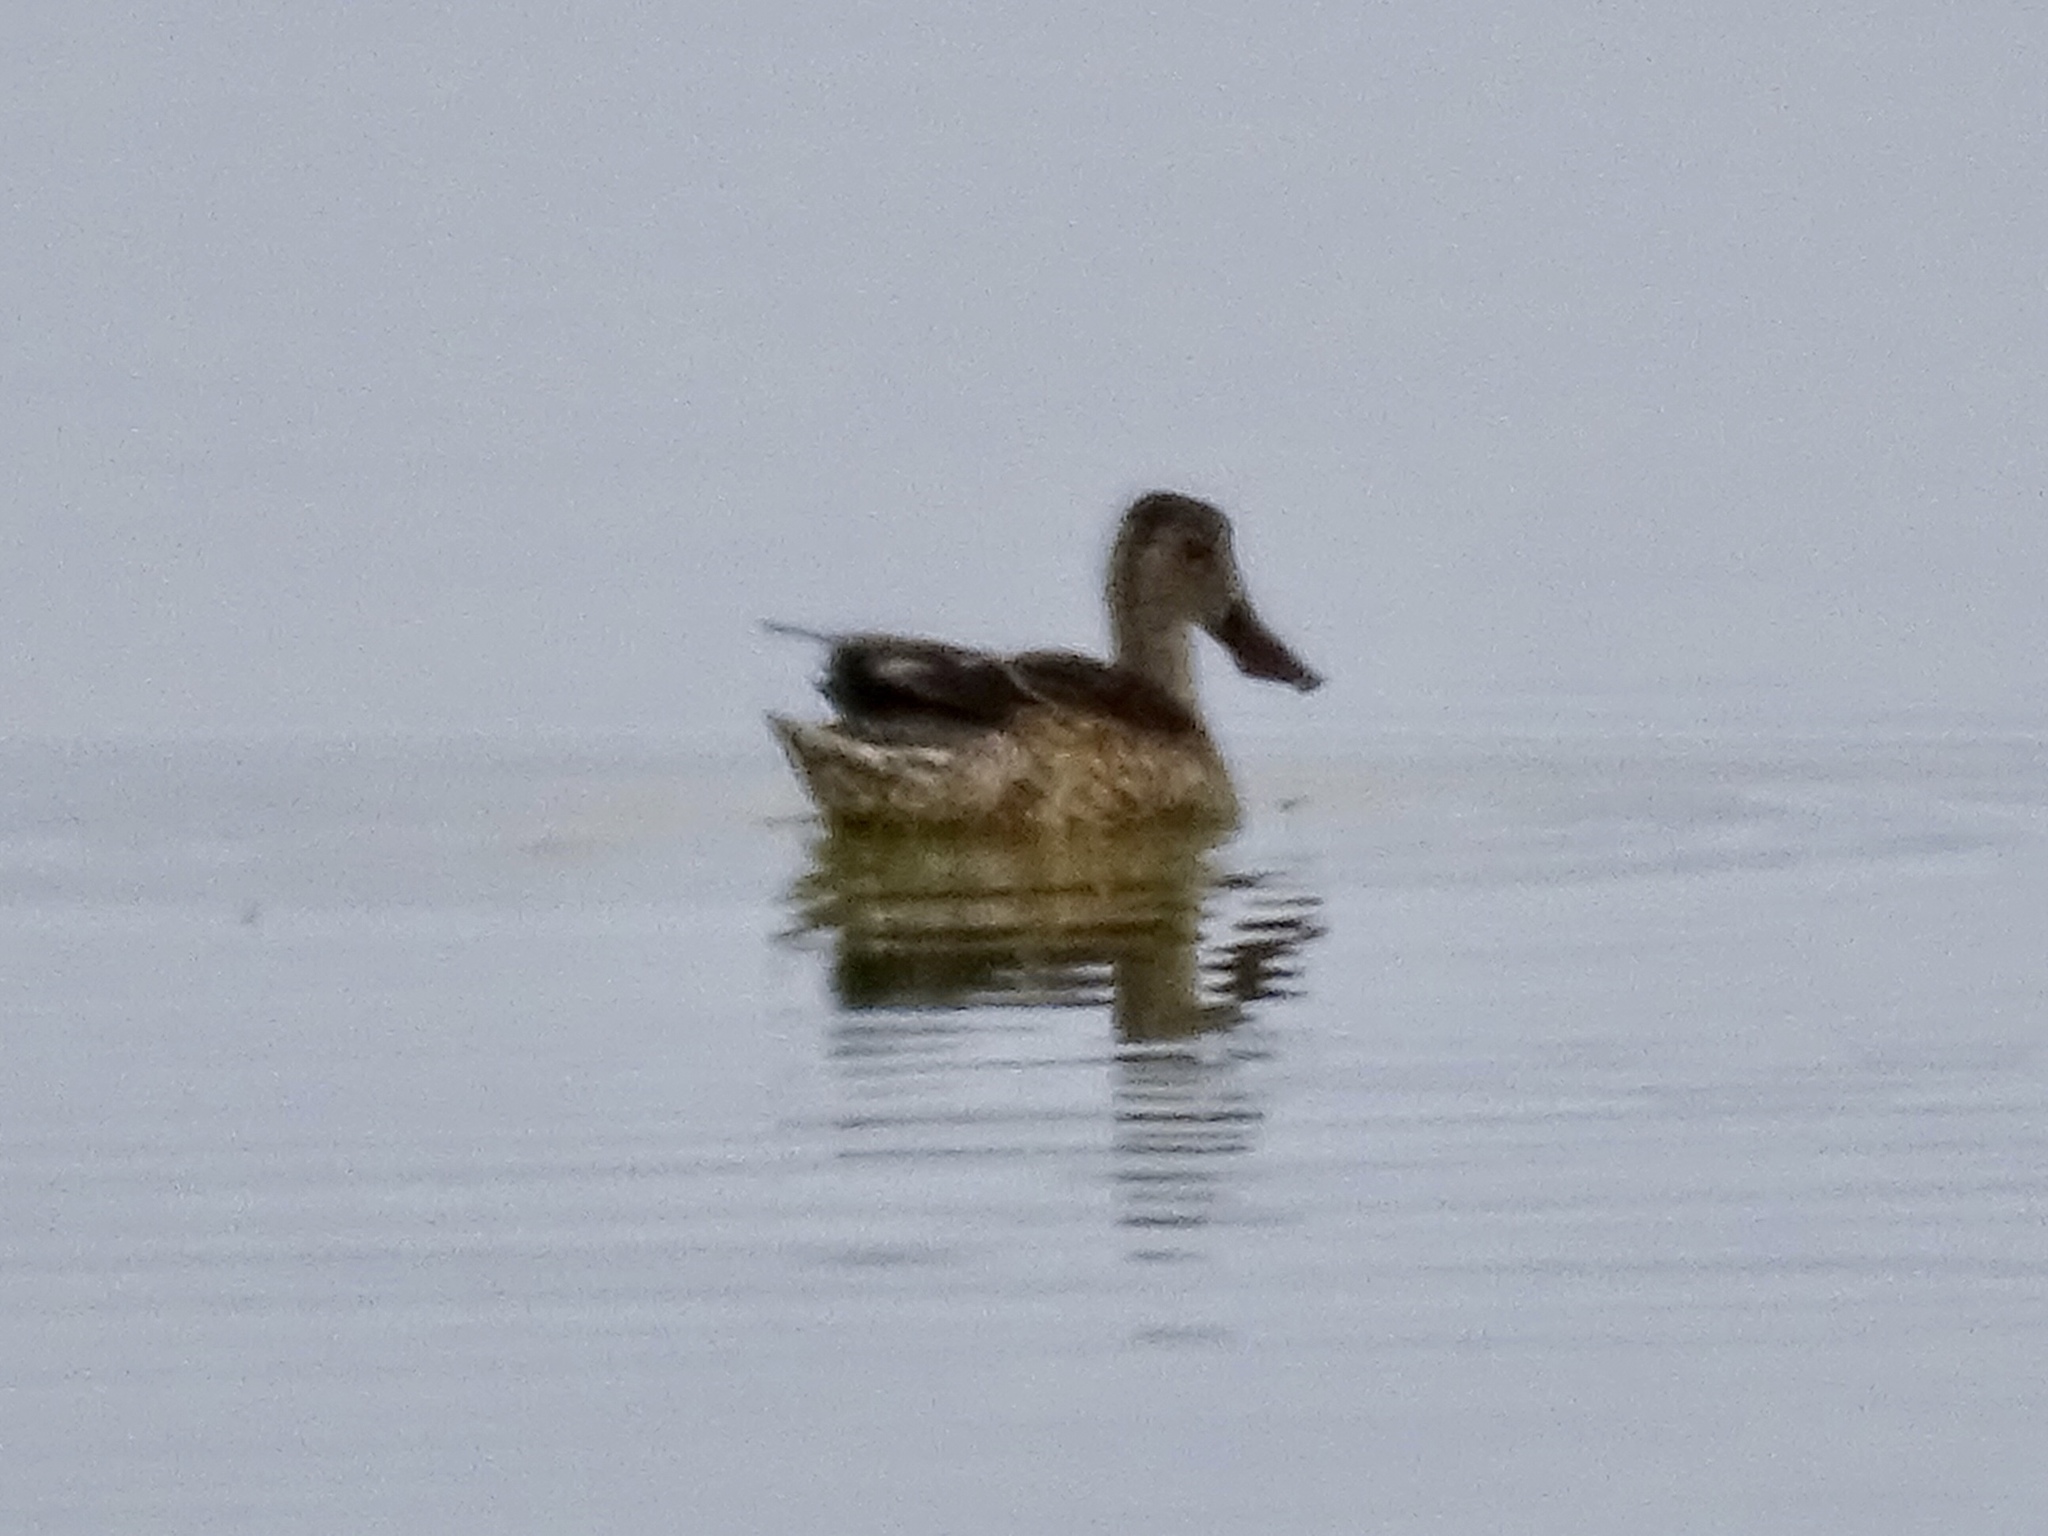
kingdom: Animalia
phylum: Chordata
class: Aves
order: Anseriformes
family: Anatidae
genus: Spatula
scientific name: Spatula clypeata
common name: Northern shoveler
